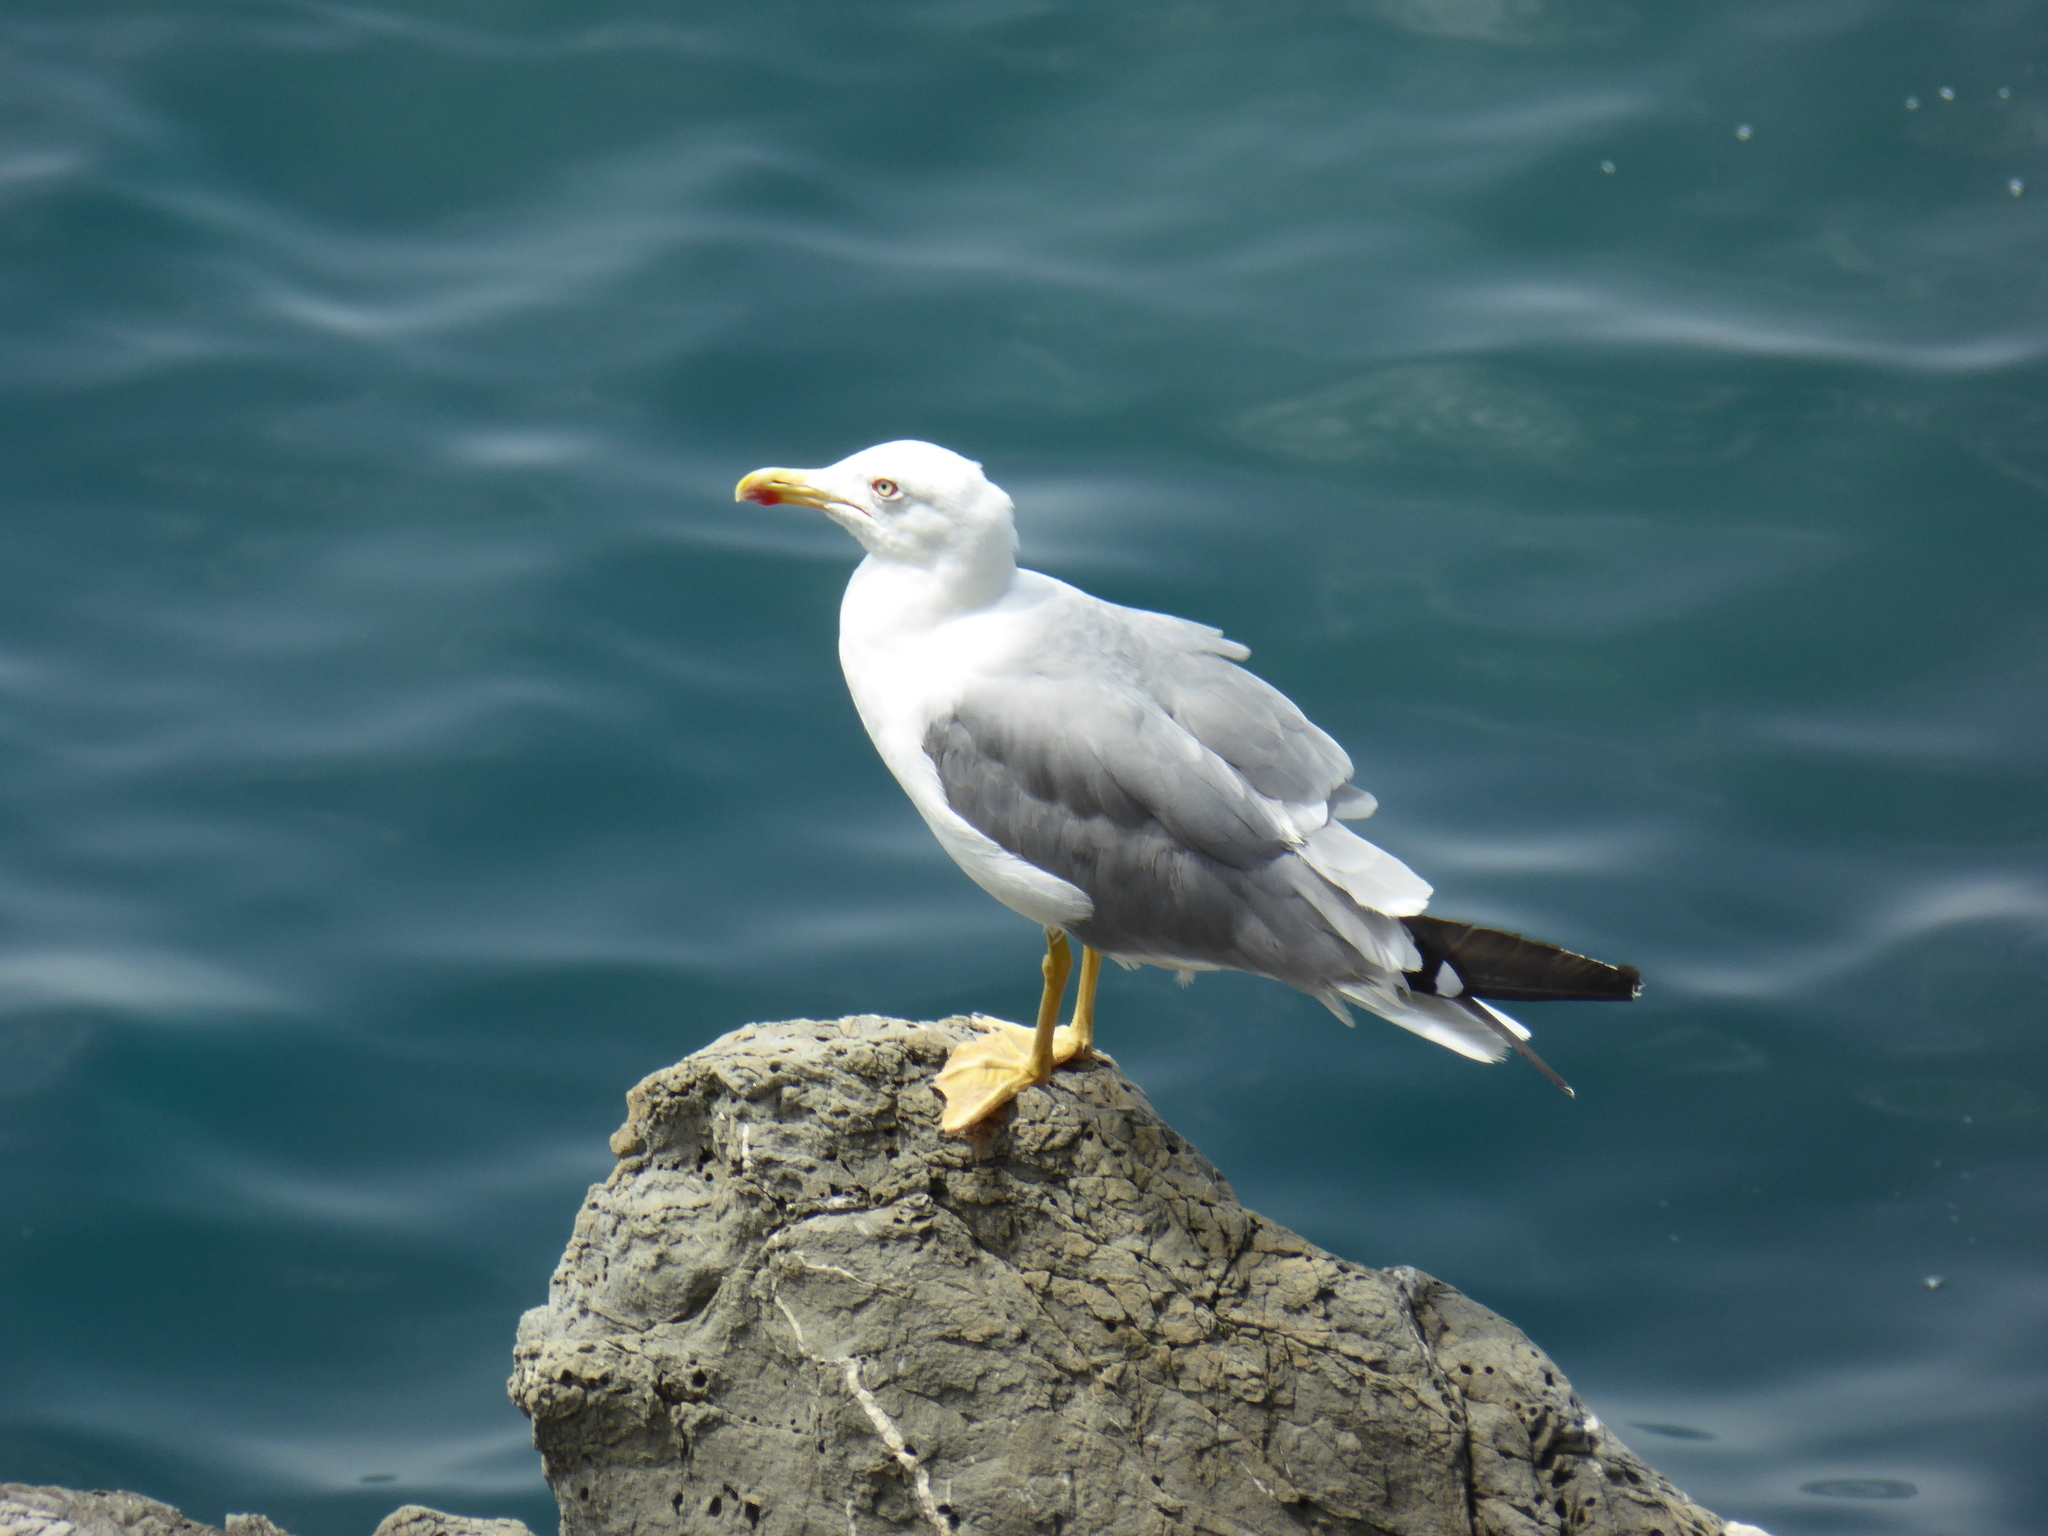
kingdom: Animalia
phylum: Chordata
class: Aves
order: Charadriiformes
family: Laridae
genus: Larus
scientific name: Larus michahellis
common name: Yellow-legged gull
